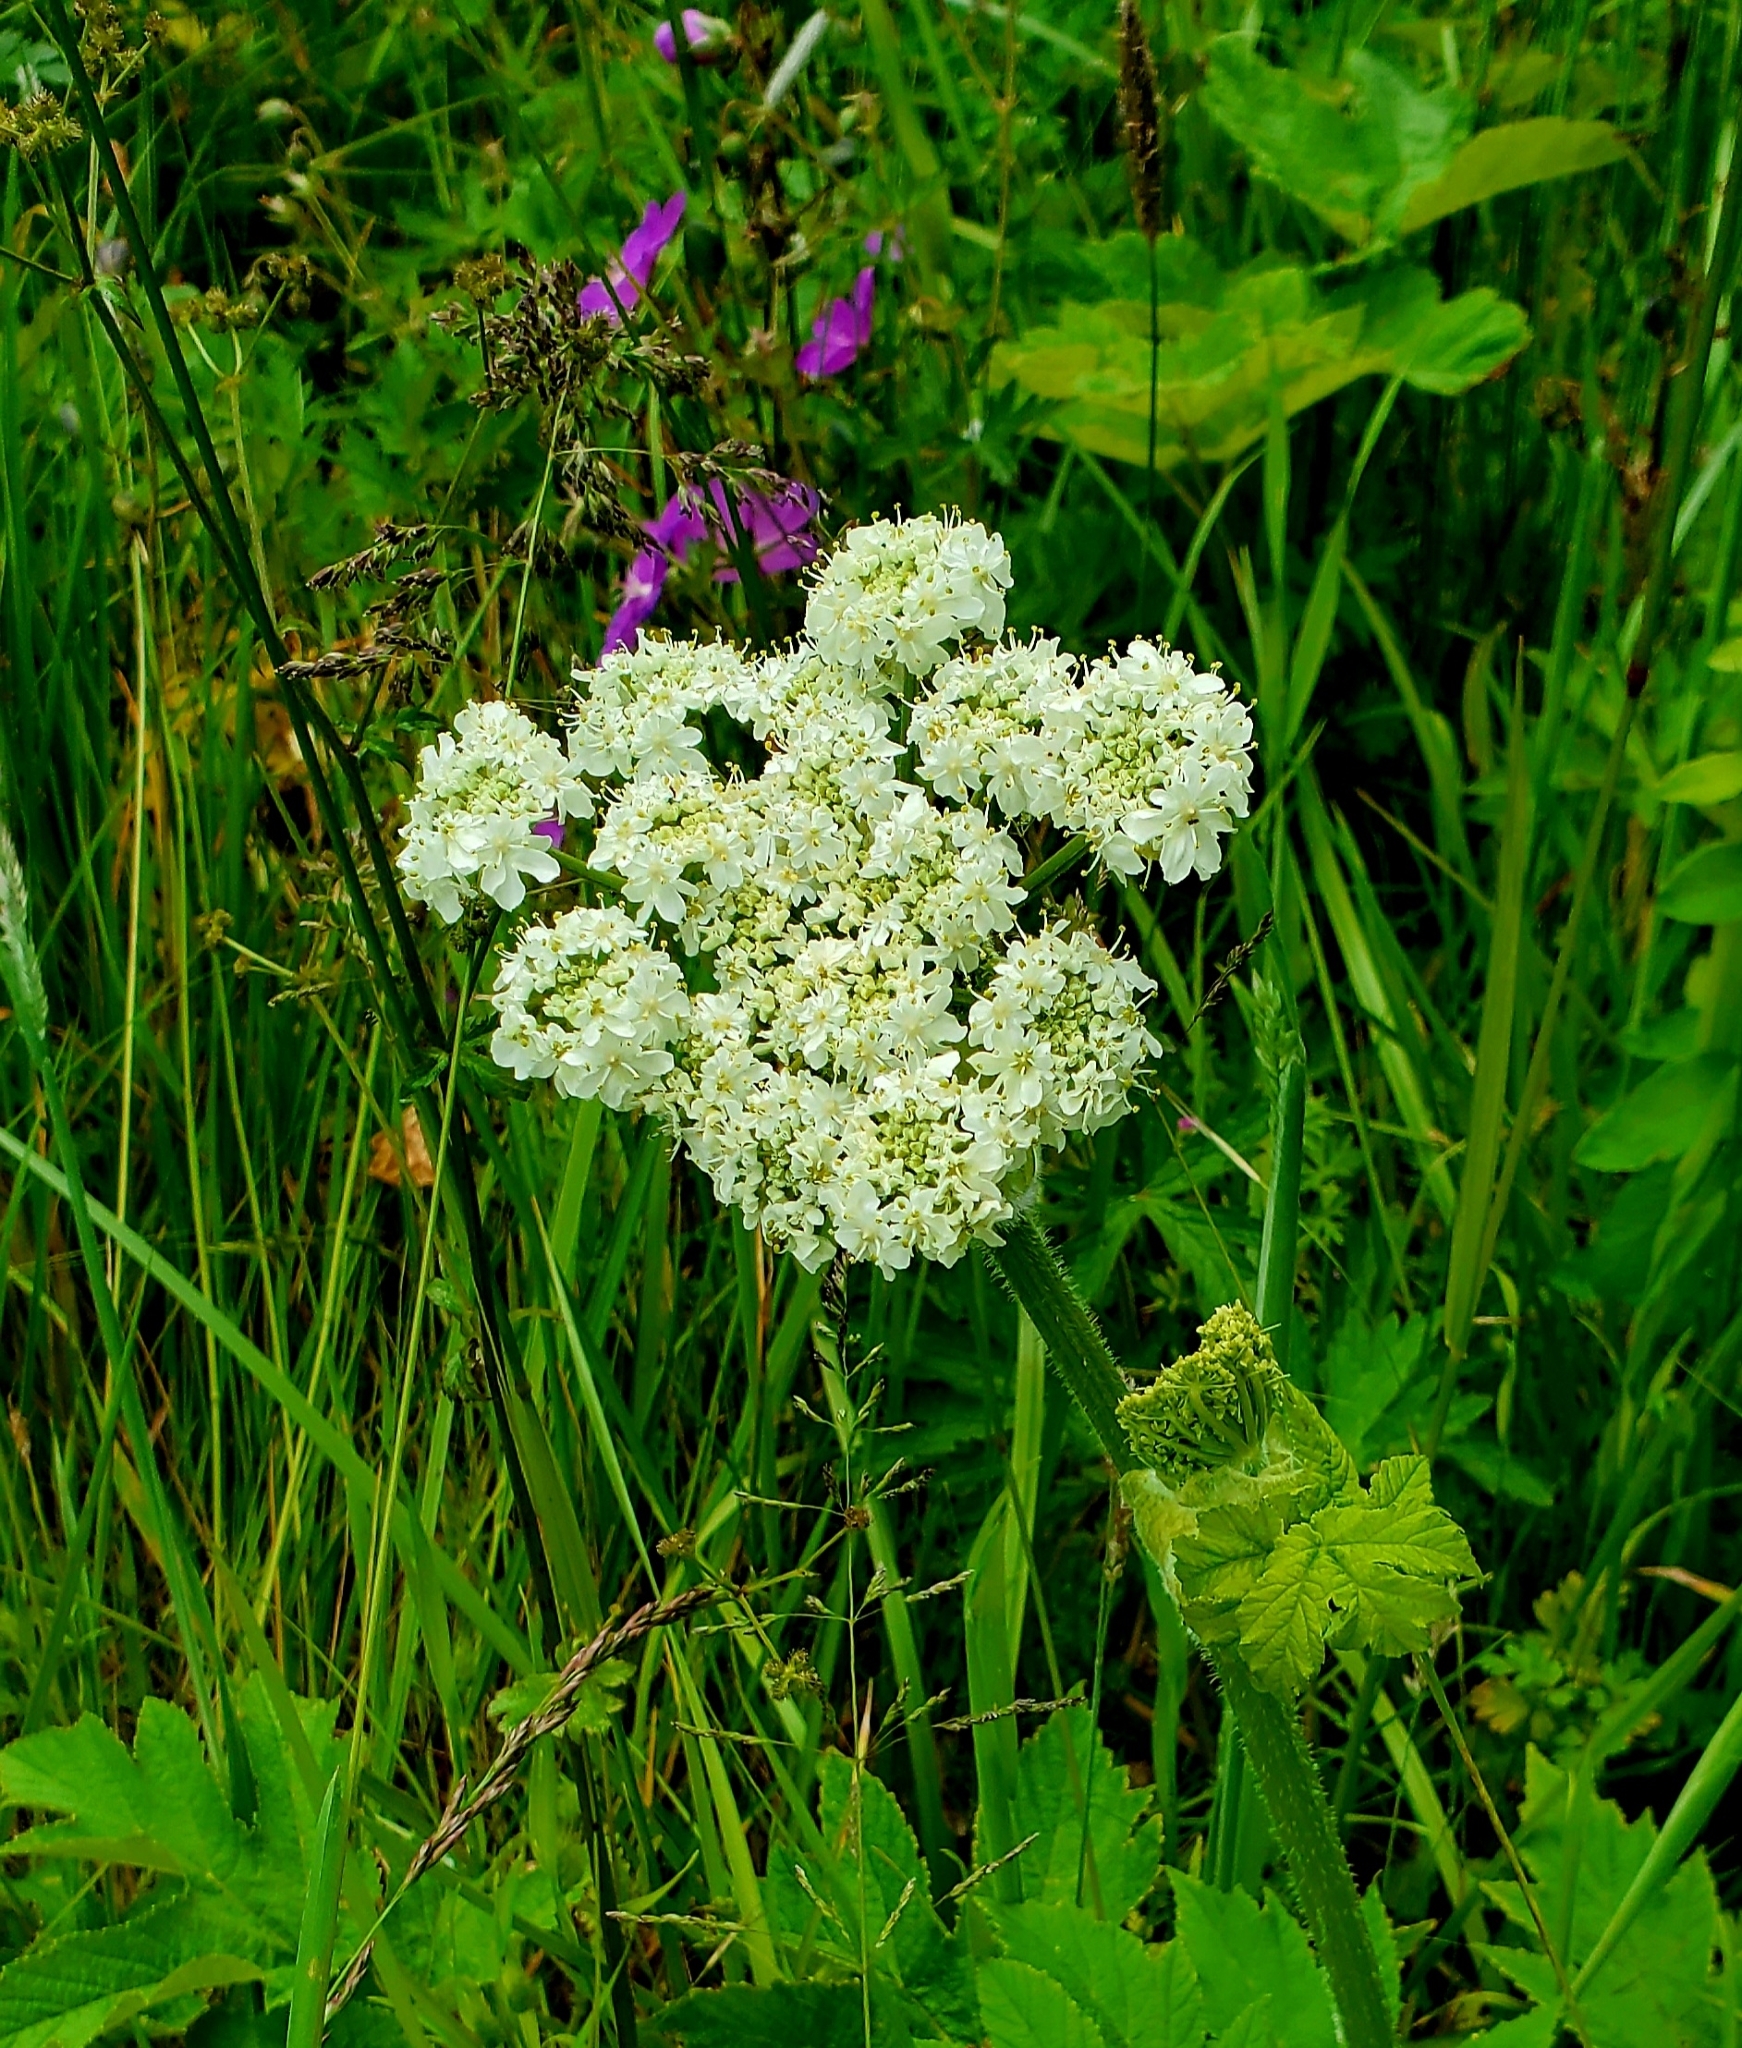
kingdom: Plantae
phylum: Tracheophyta
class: Magnoliopsida
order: Apiales
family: Apiaceae
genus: Heracleum
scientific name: Heracleum maximum
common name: American cow parsnip
